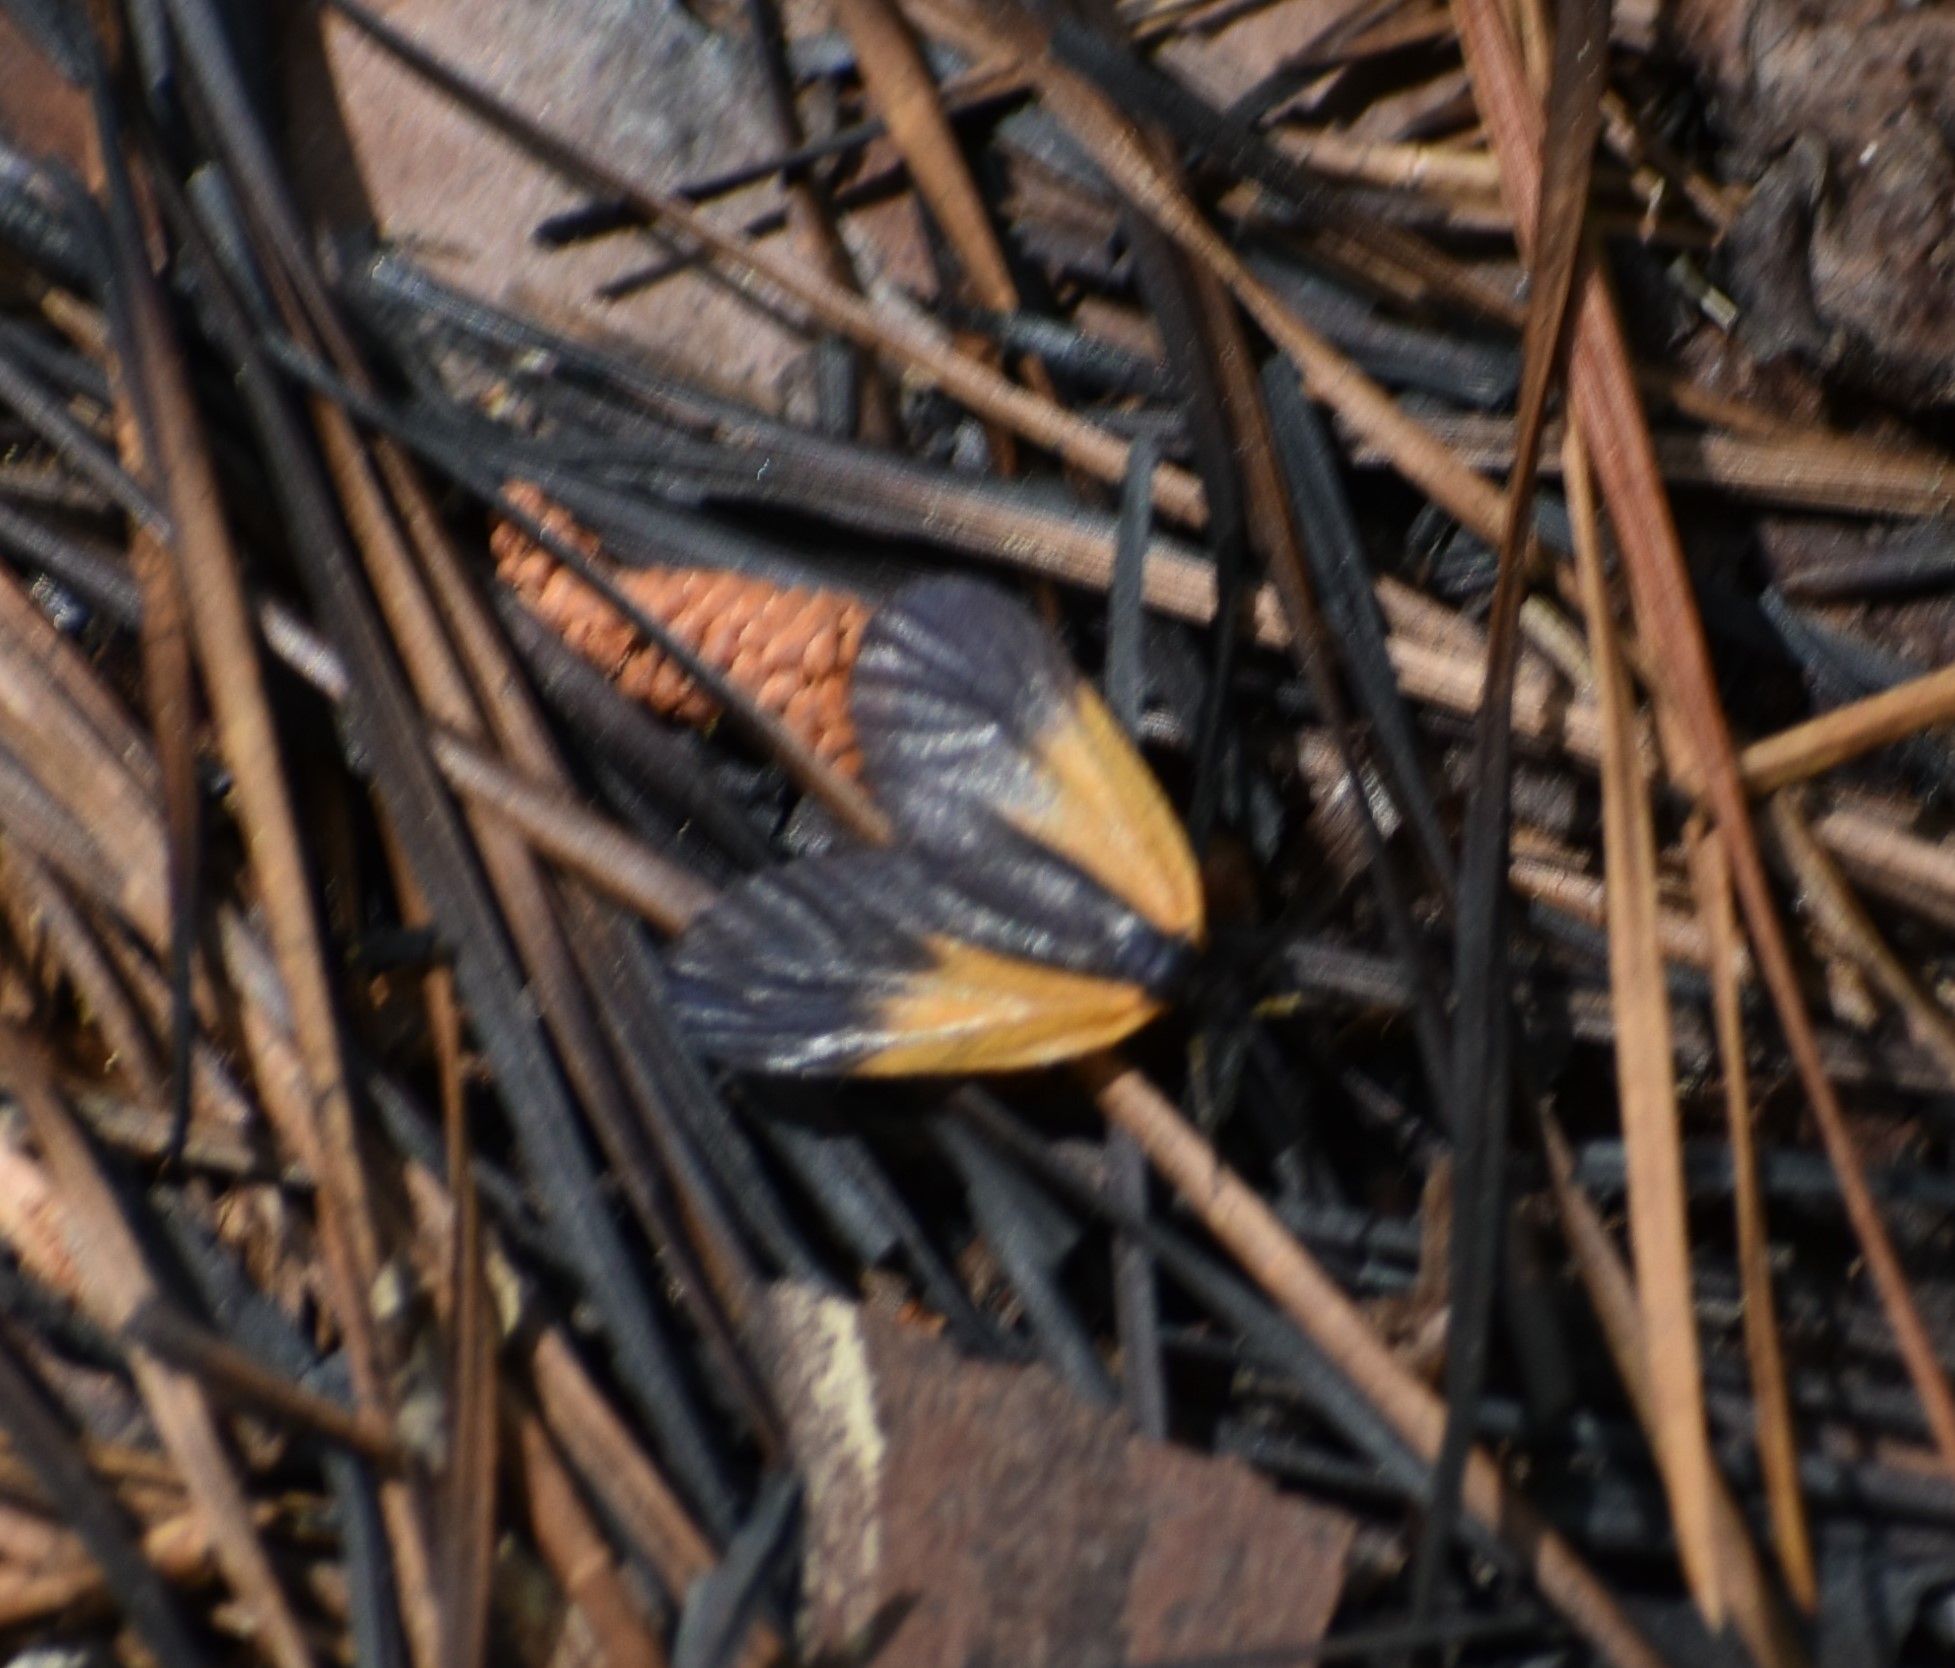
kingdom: Animalia
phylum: Arthropoda
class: Insecta
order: Lepidoptera
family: Zygaenidae
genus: Malthaca
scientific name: Malthaca dimidiata
